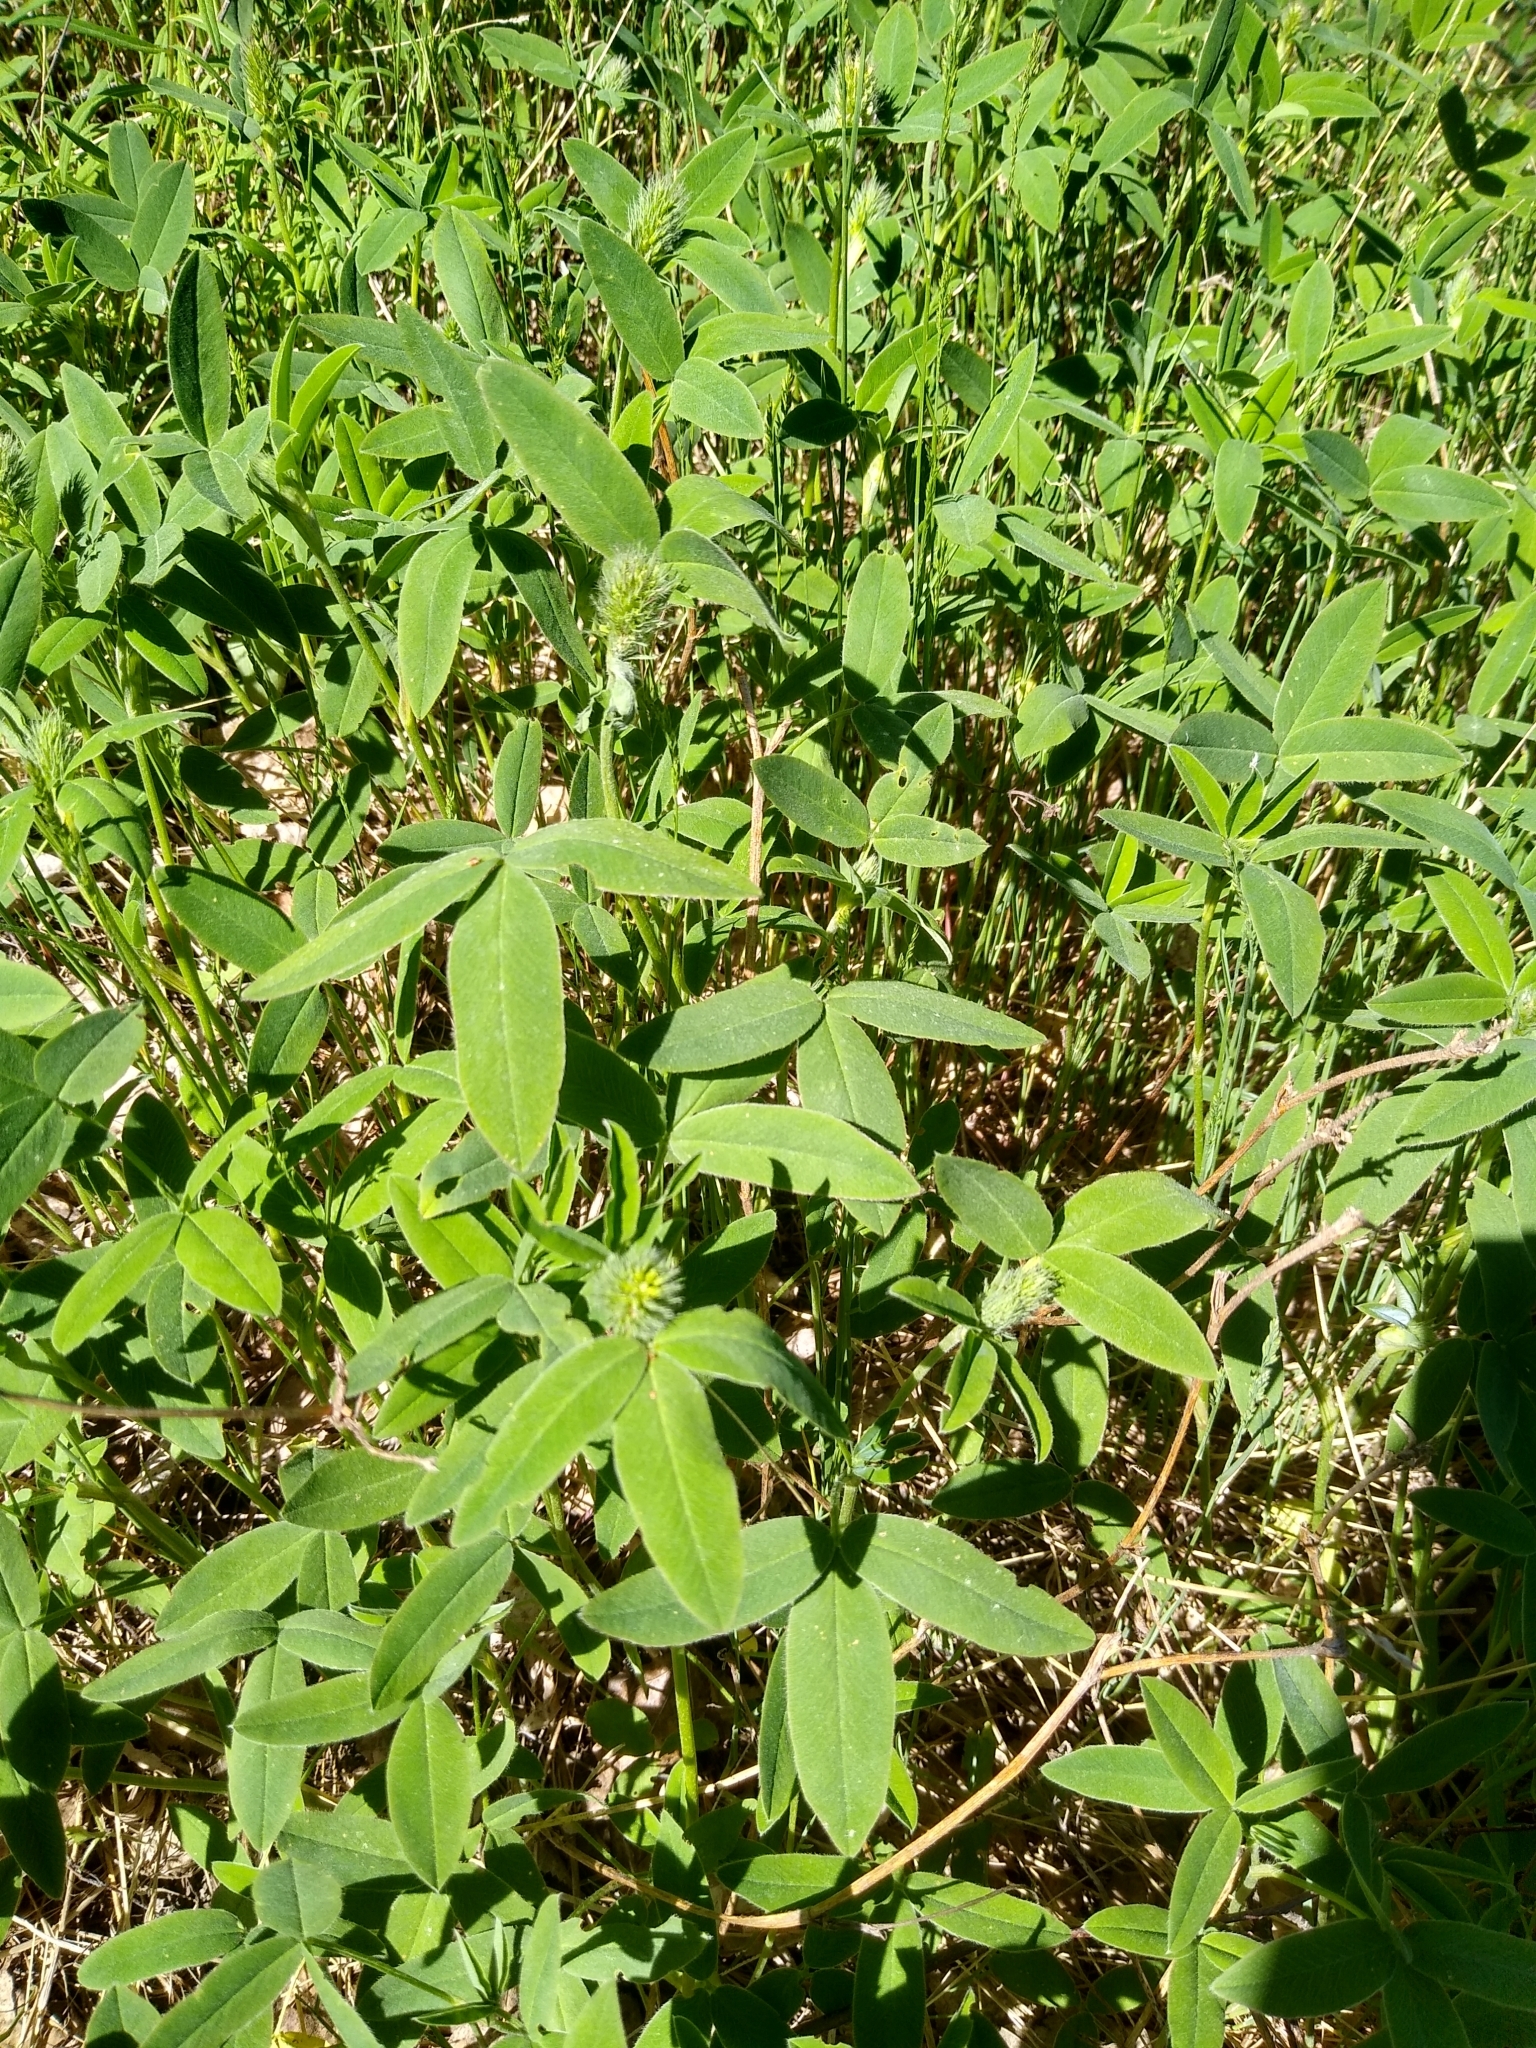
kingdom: Plantae
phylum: Tracheophyta
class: Magnoliopsida
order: Fabales
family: Fabaceae
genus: Trifolium
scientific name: Trifolium medium
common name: Zigzag clover
